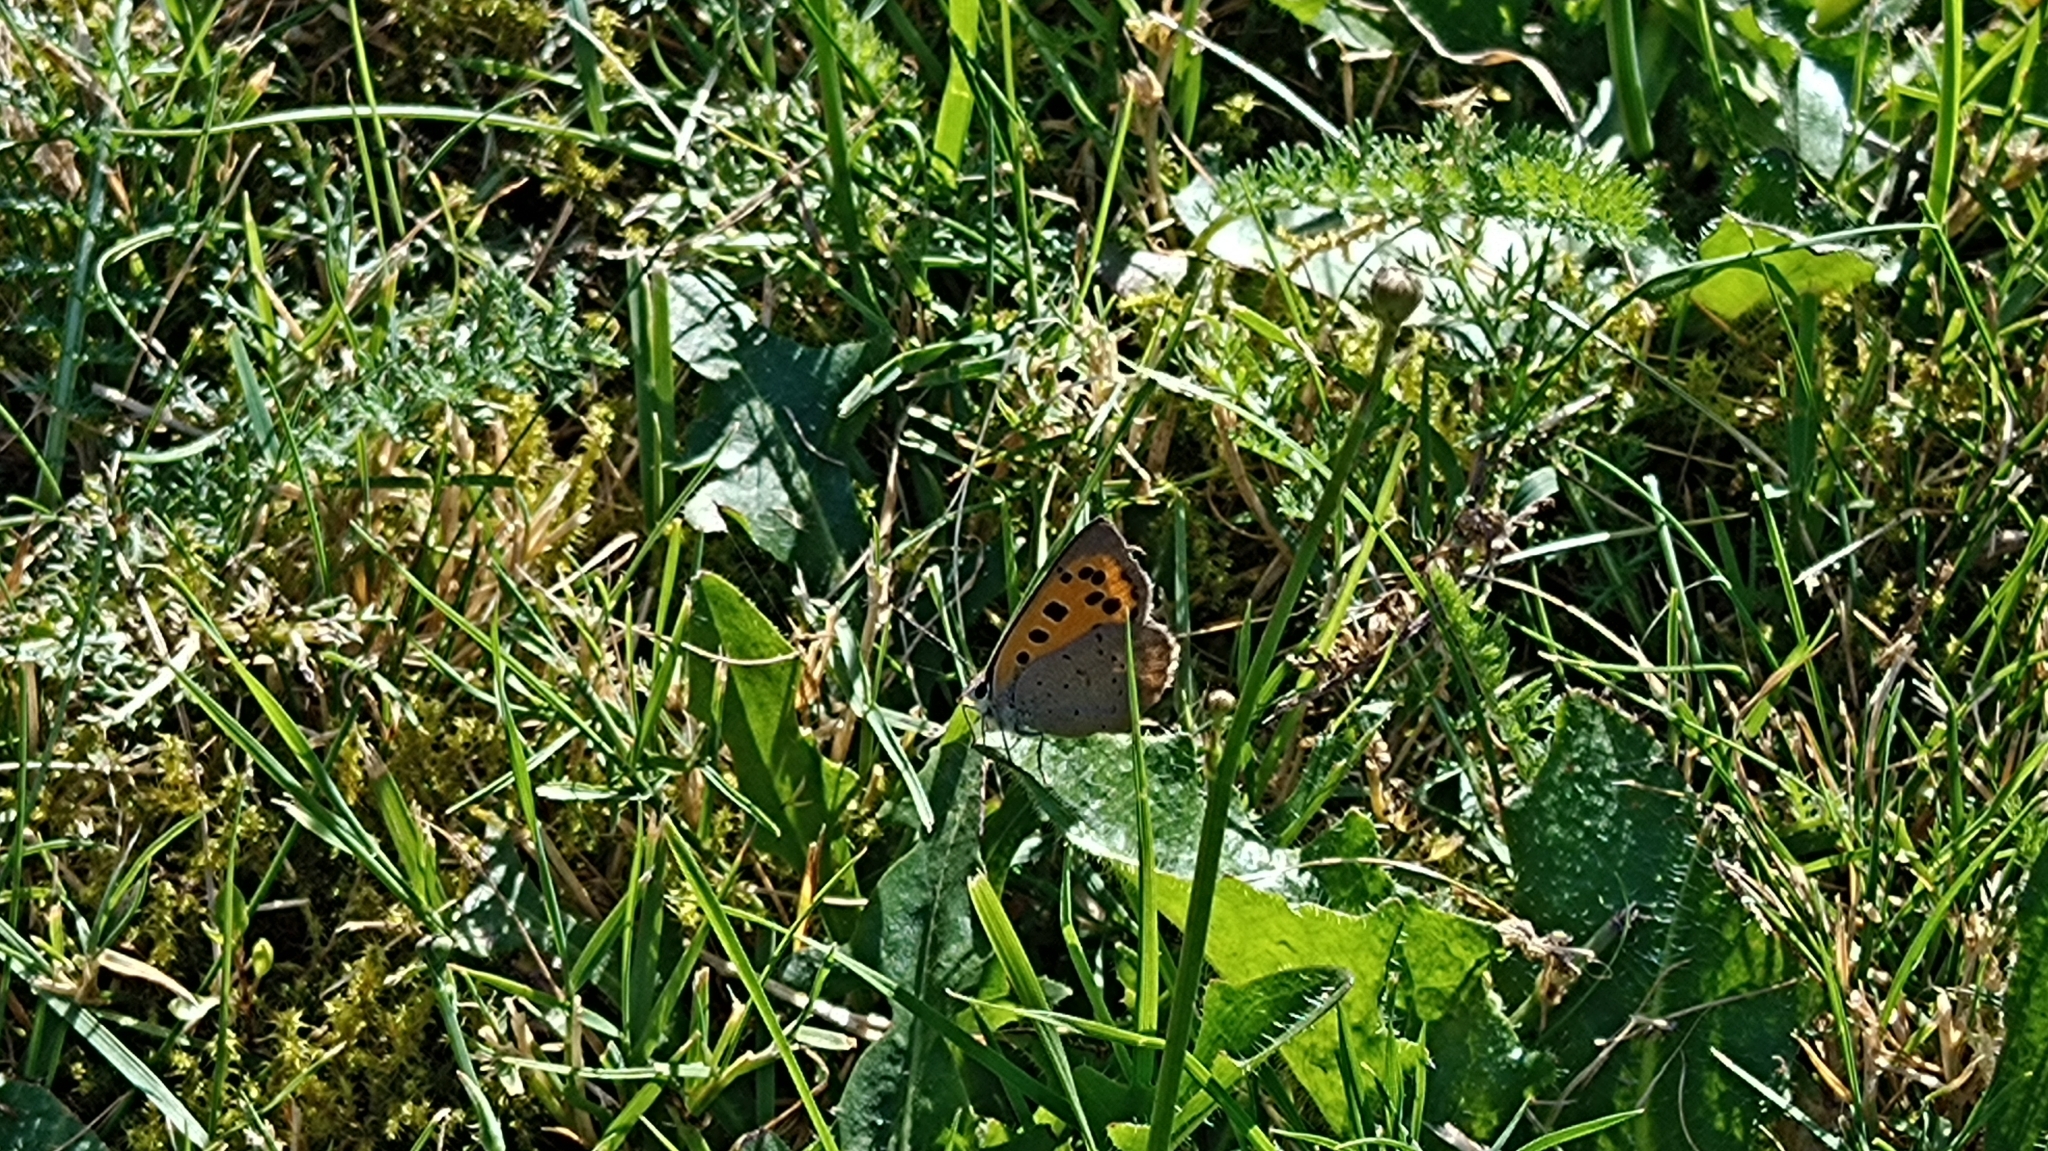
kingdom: Animalia
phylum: Arthropoda
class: Insecta
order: Lepidoptera
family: Lycaenidae
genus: Lycaena
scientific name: Lycaena phlaeas
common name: Small copper
